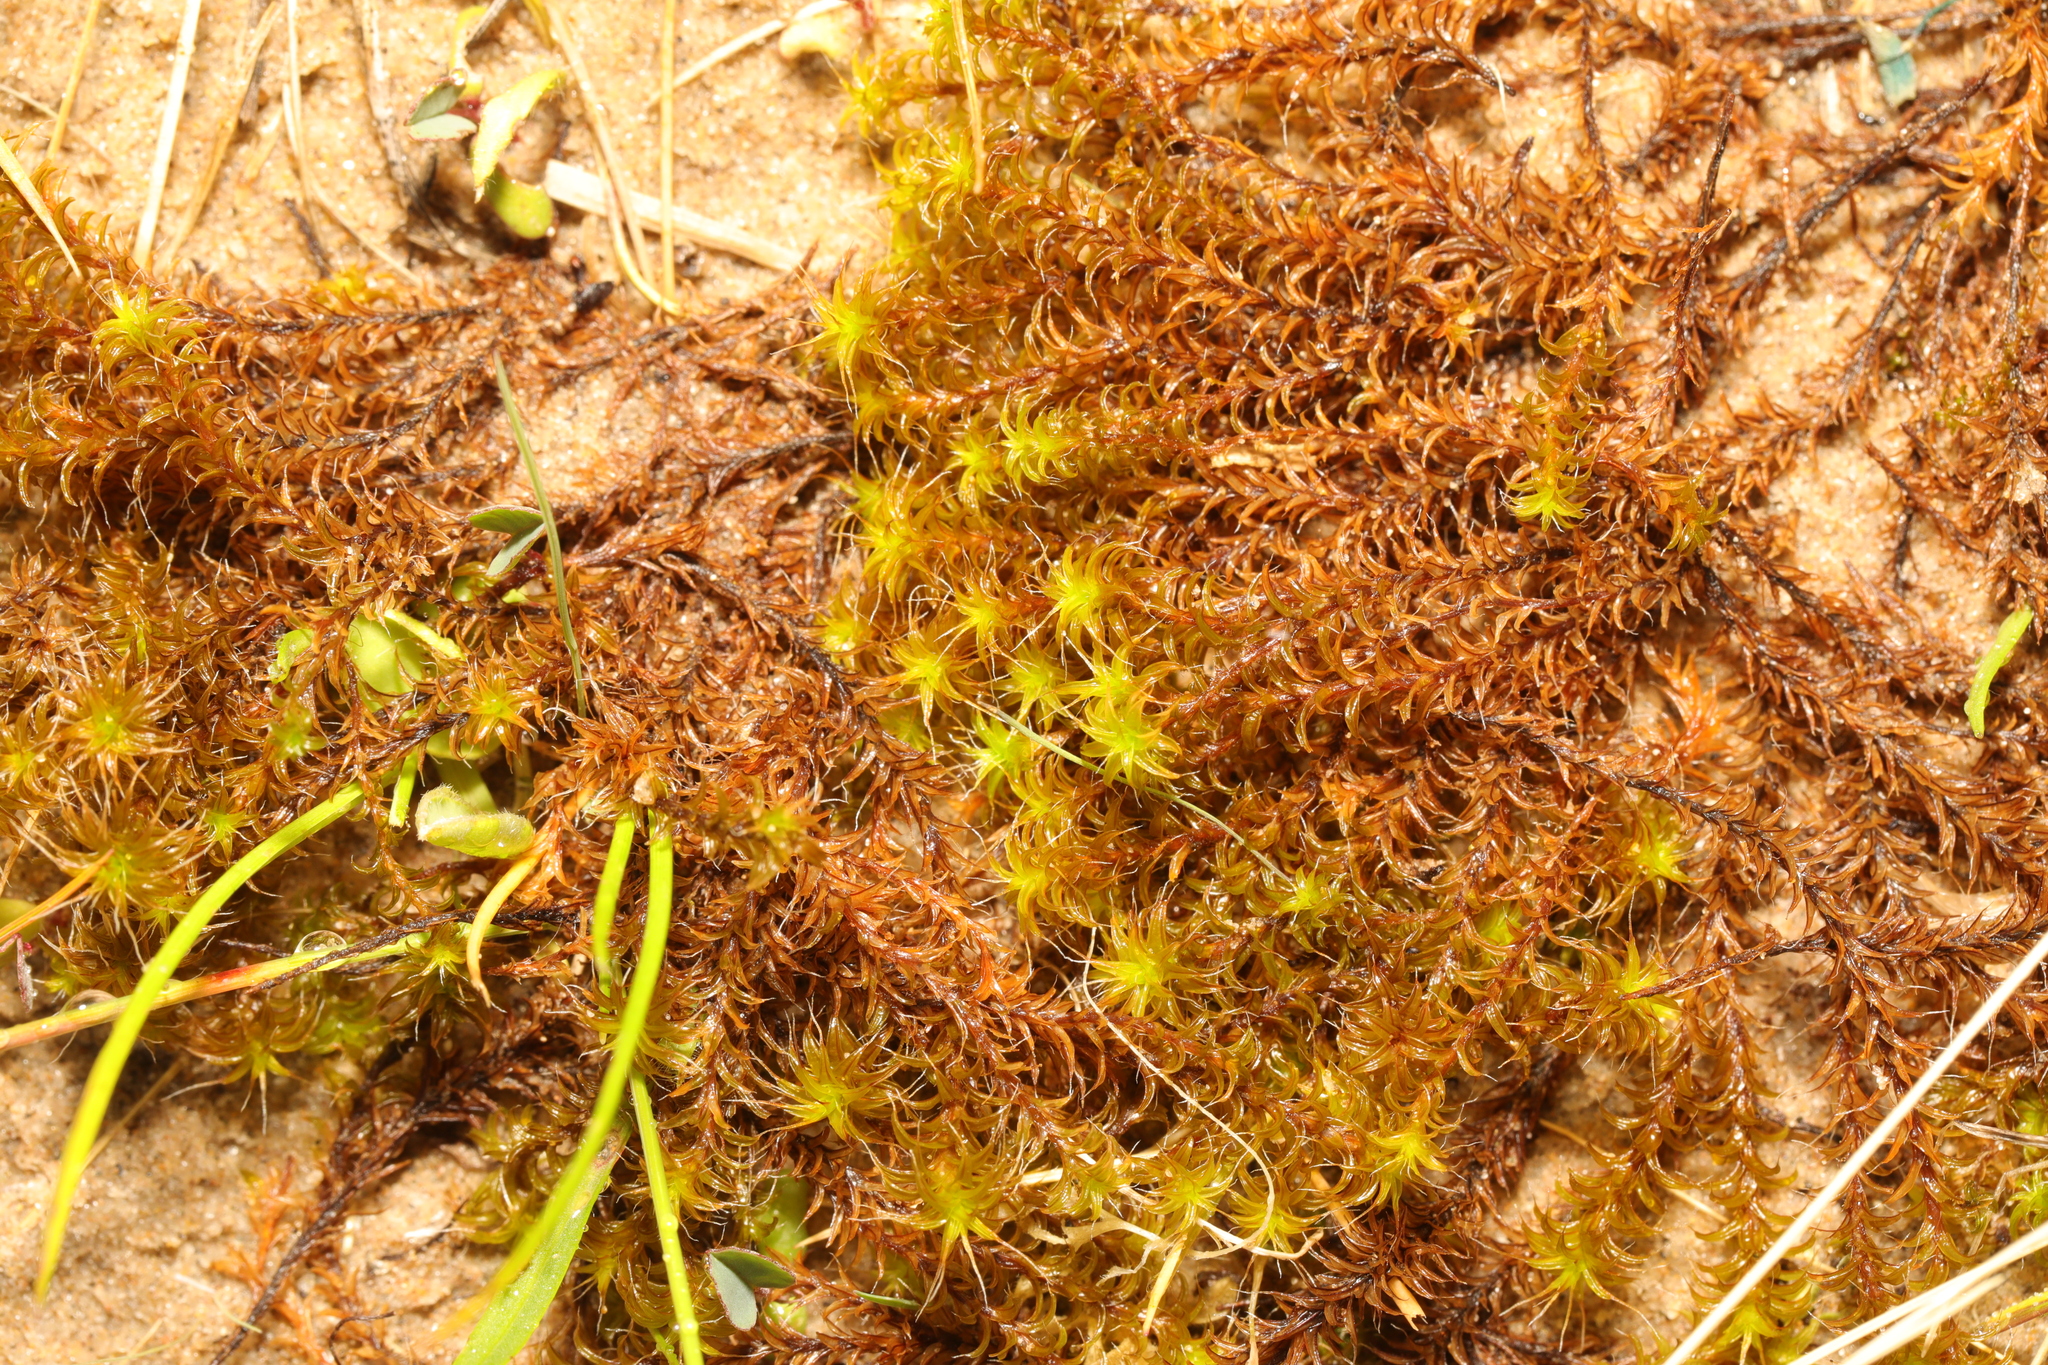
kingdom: Plantae
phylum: Bryophyta
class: Bryopsida
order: Pottiales
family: Pottiaceae
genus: Syntrichia
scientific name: Syntrichia ruralis
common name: Sidewalk screw moss
